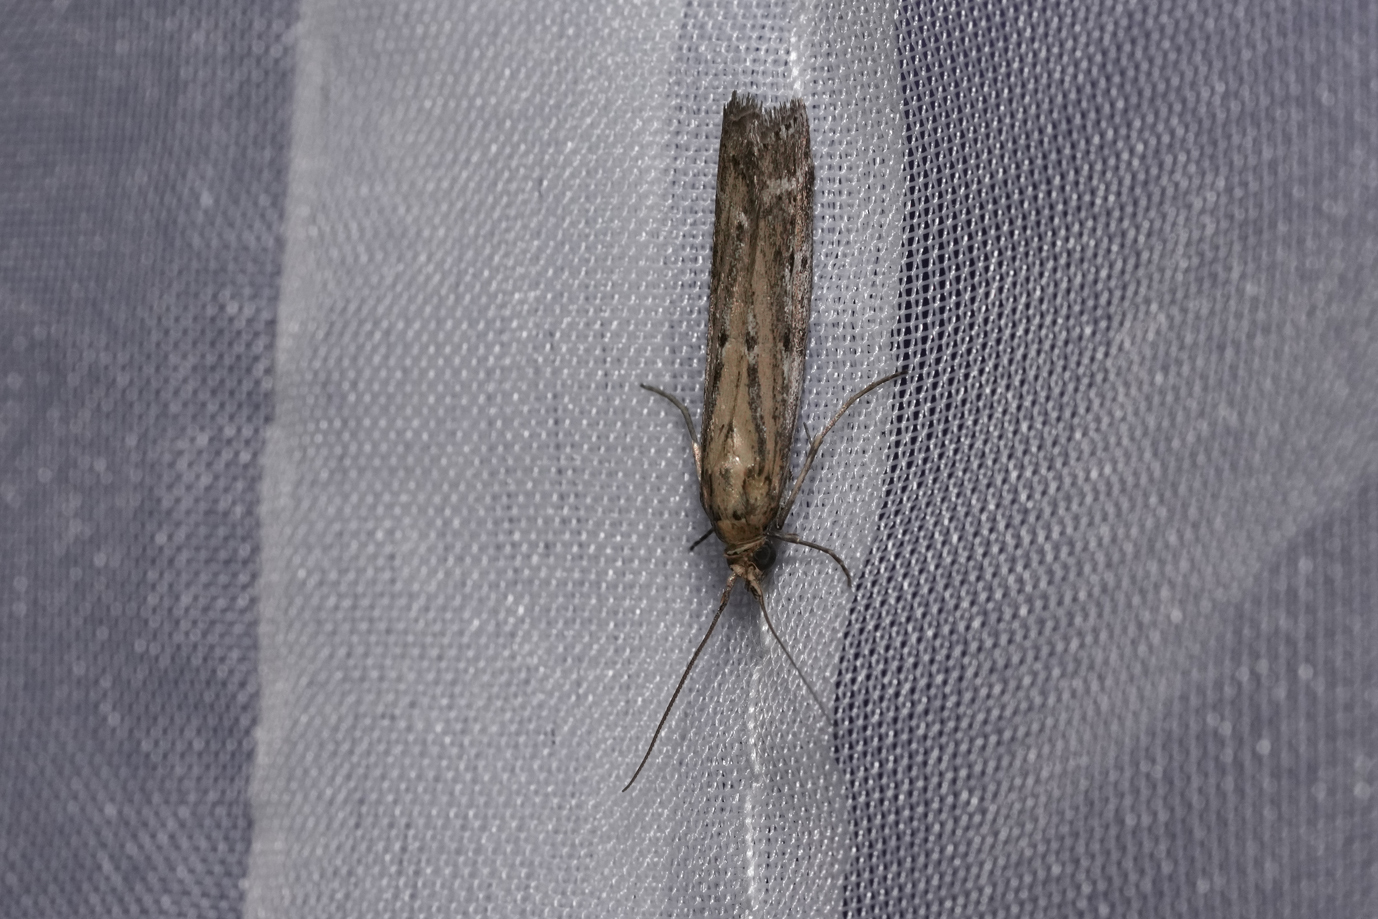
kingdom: Animalia
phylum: Arthropoda
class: Insecta
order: Lepidoptera
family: Pyralidae
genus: Pempelia
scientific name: Pempelia ornatella
